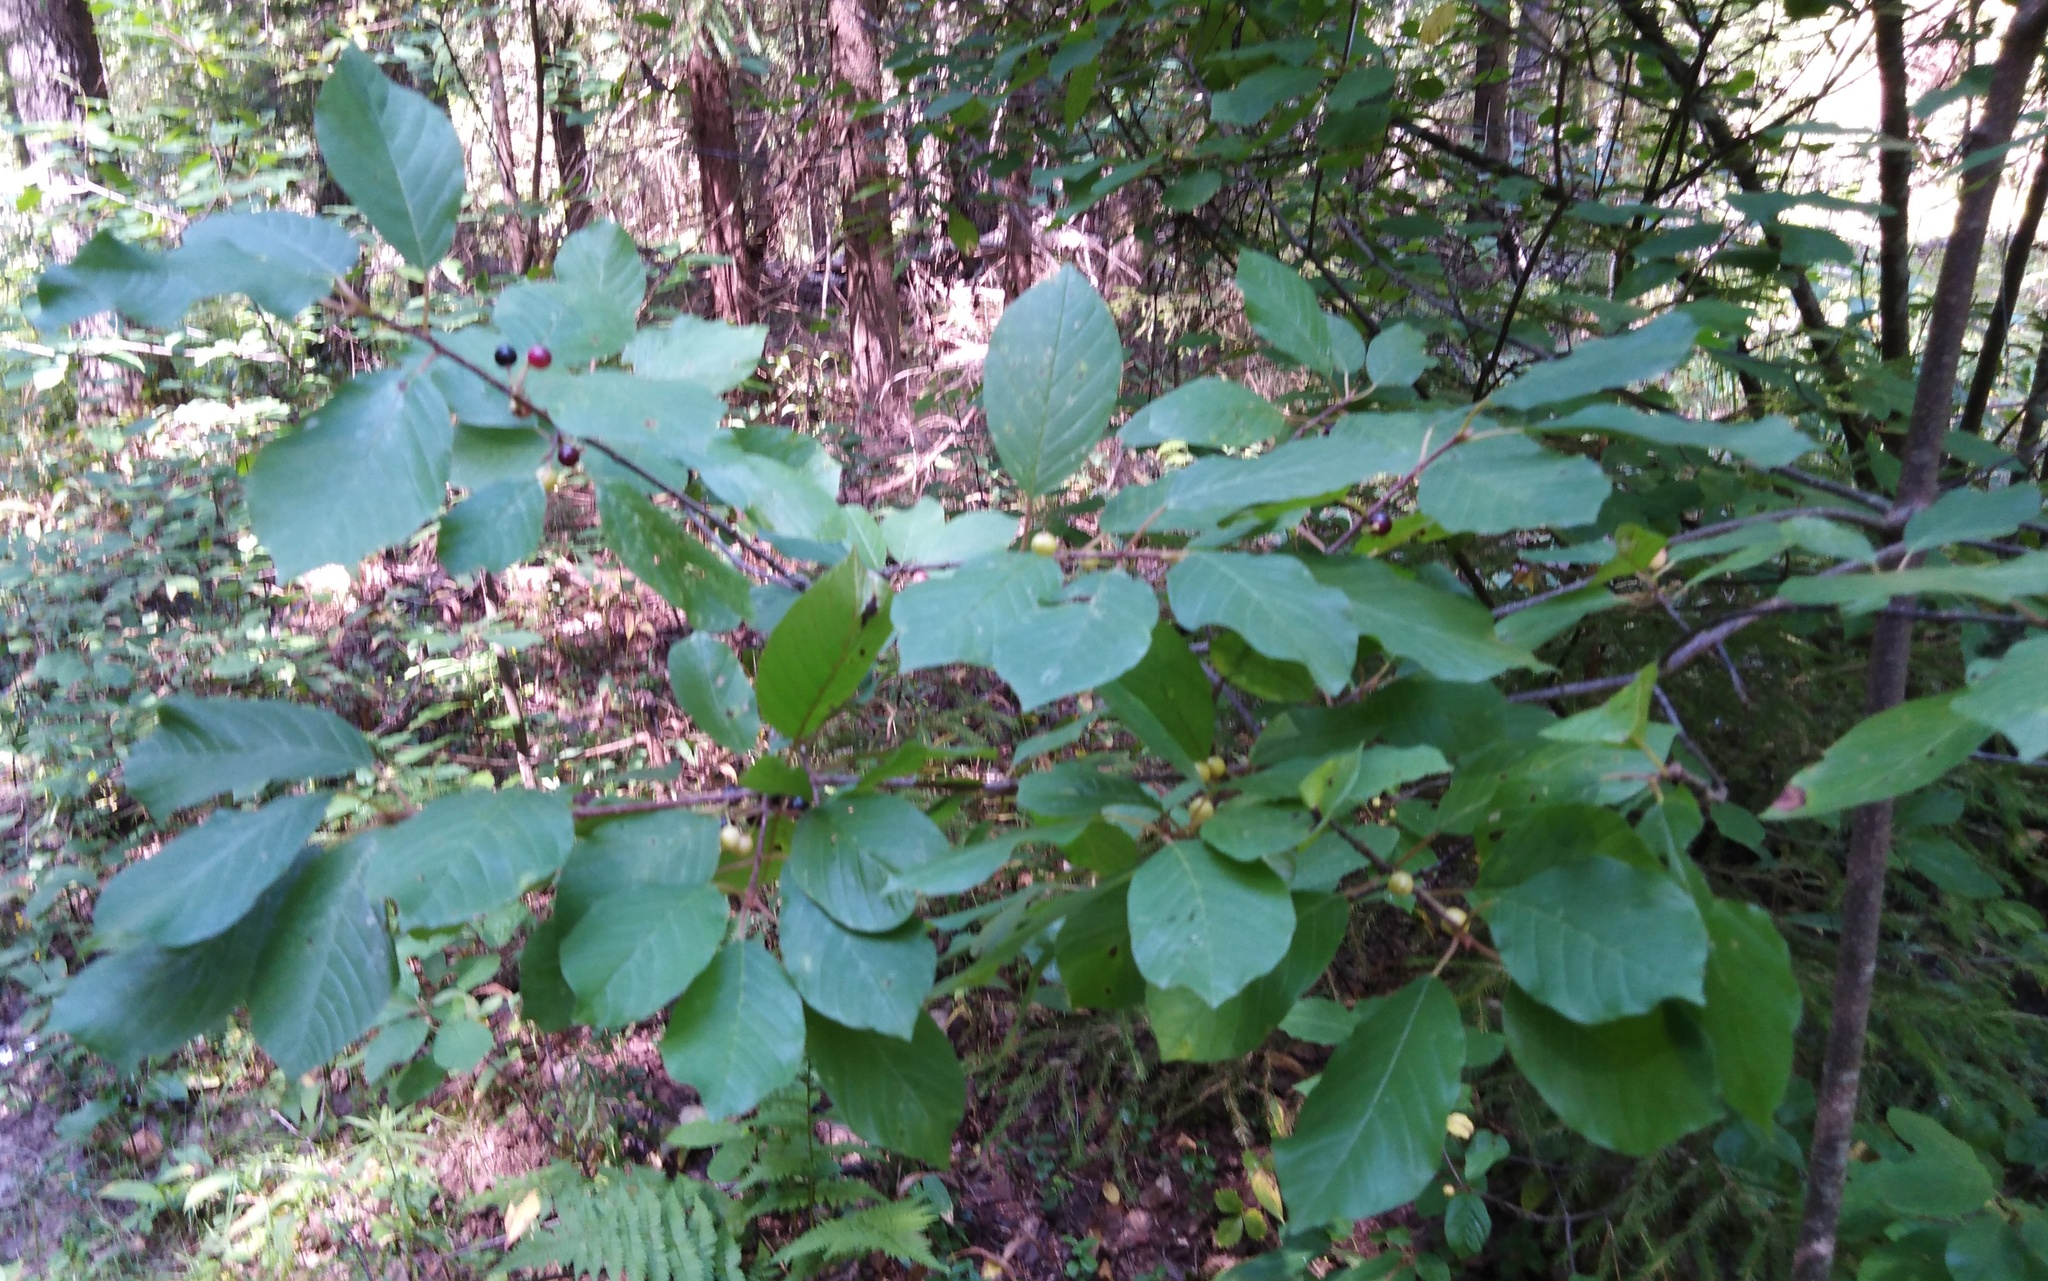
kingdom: Plantae
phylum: Tracheophyta
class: Magnoliopsida
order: Rosales
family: Rhamnaceae
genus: Frangula
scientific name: Frangula alnus
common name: Alder buckthorn
